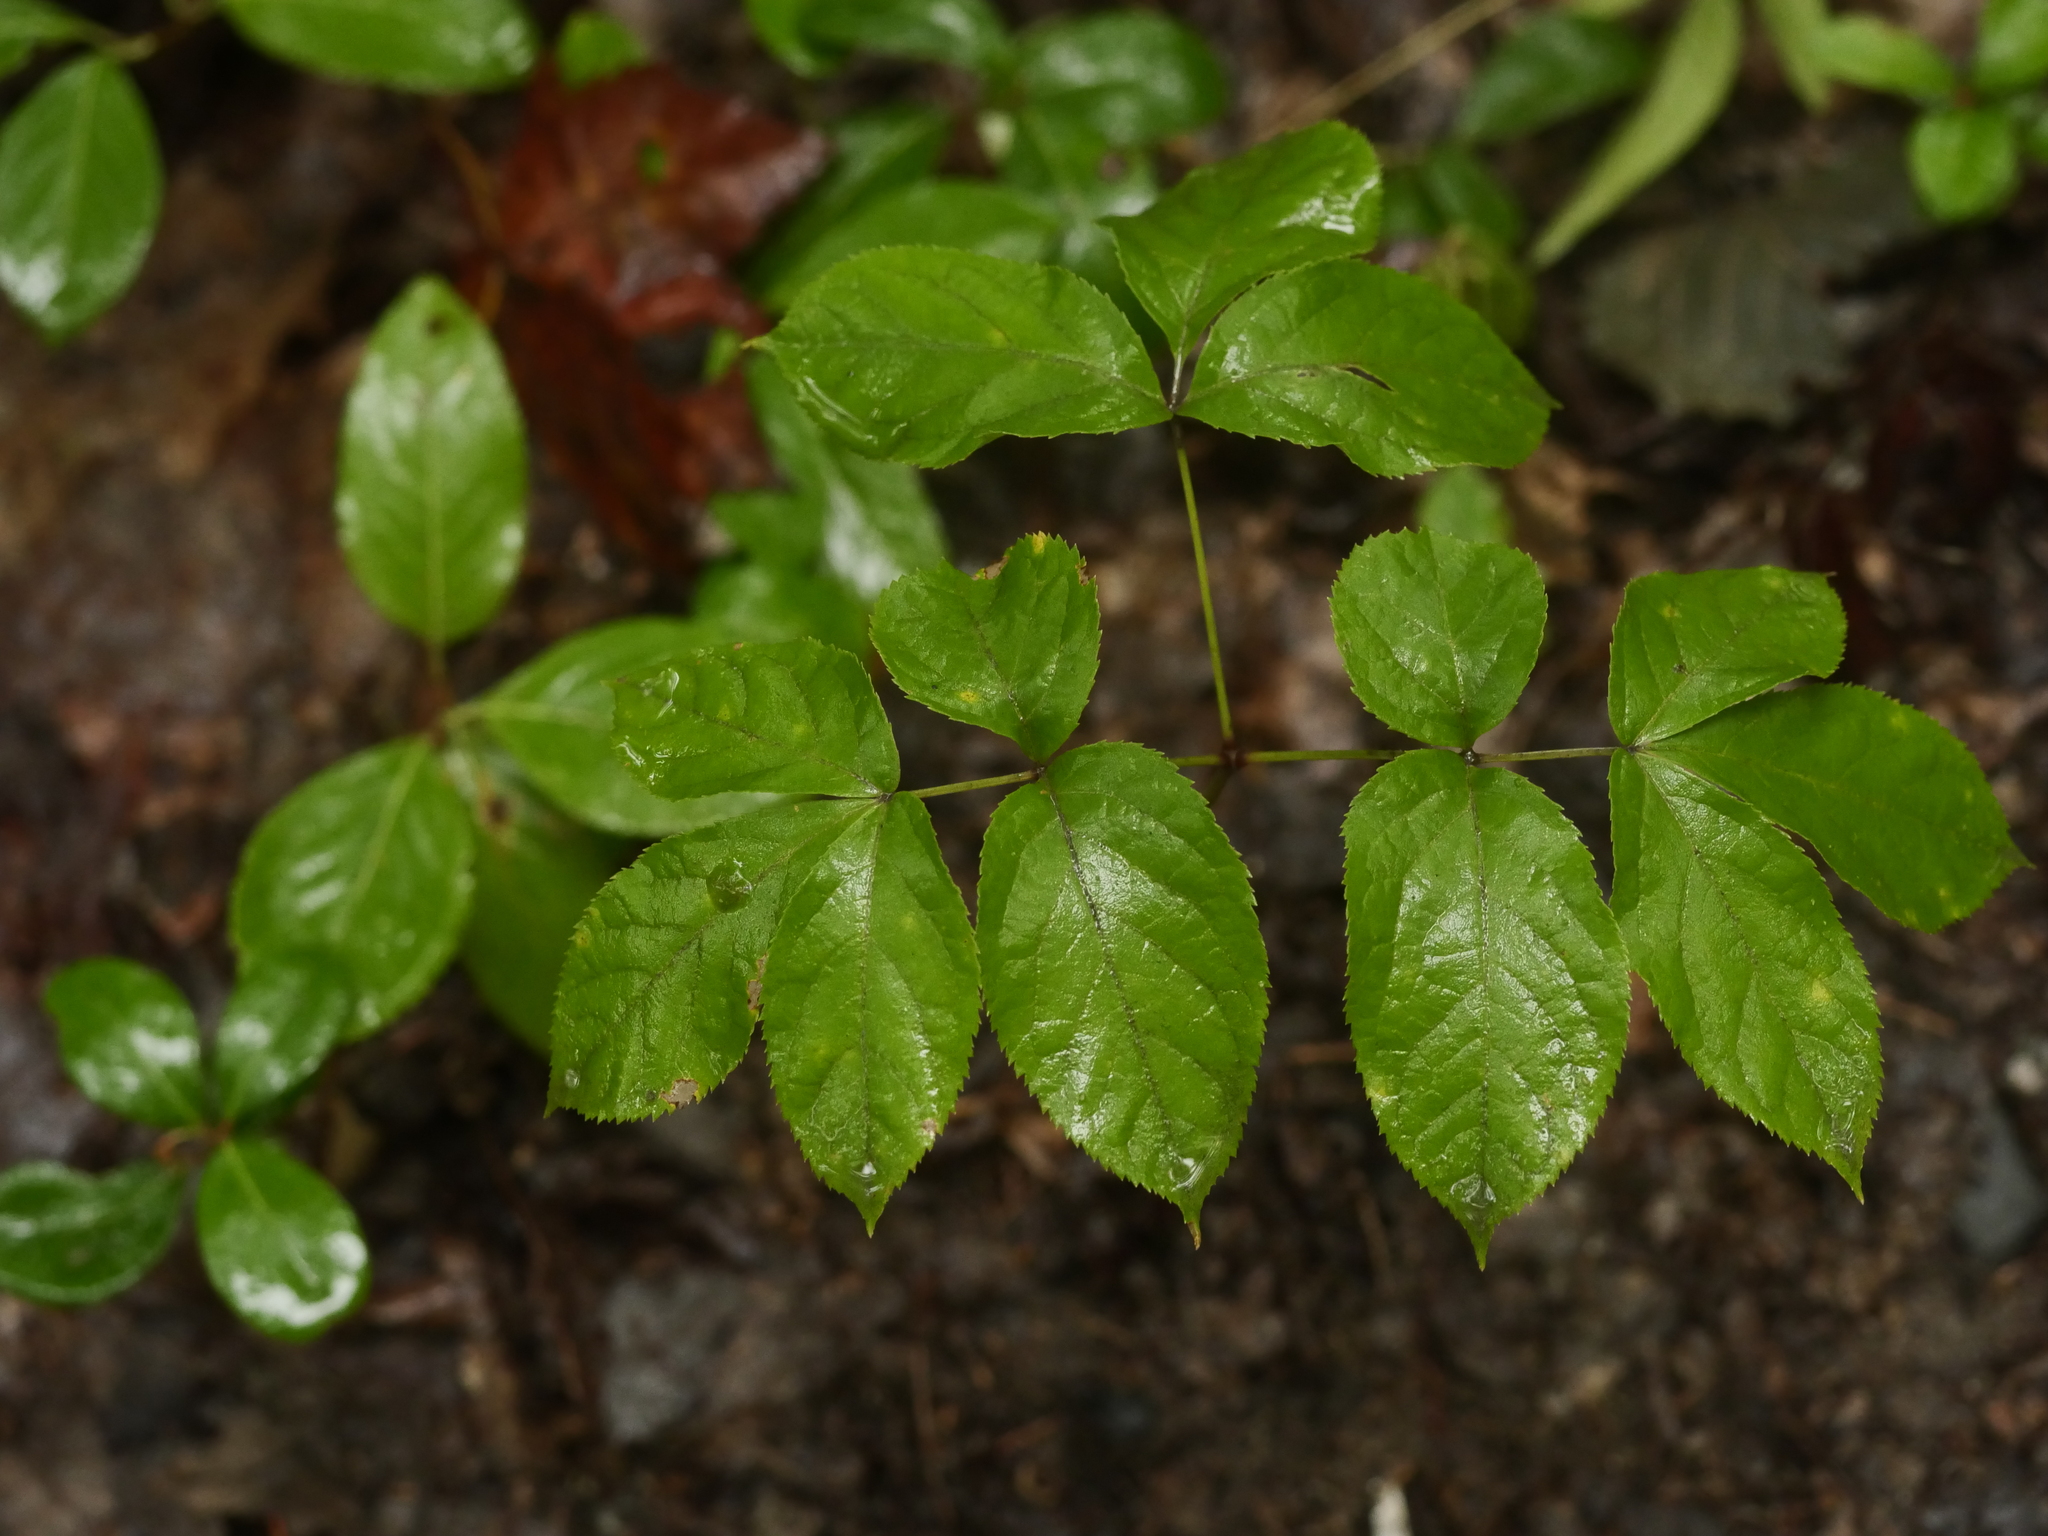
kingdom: Plantae
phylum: Tracheophyta
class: Magnoliopsida
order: Apiales
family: Araliaceae
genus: Aralia
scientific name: Aralia nudicaulis
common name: Wild sarsaparilla
